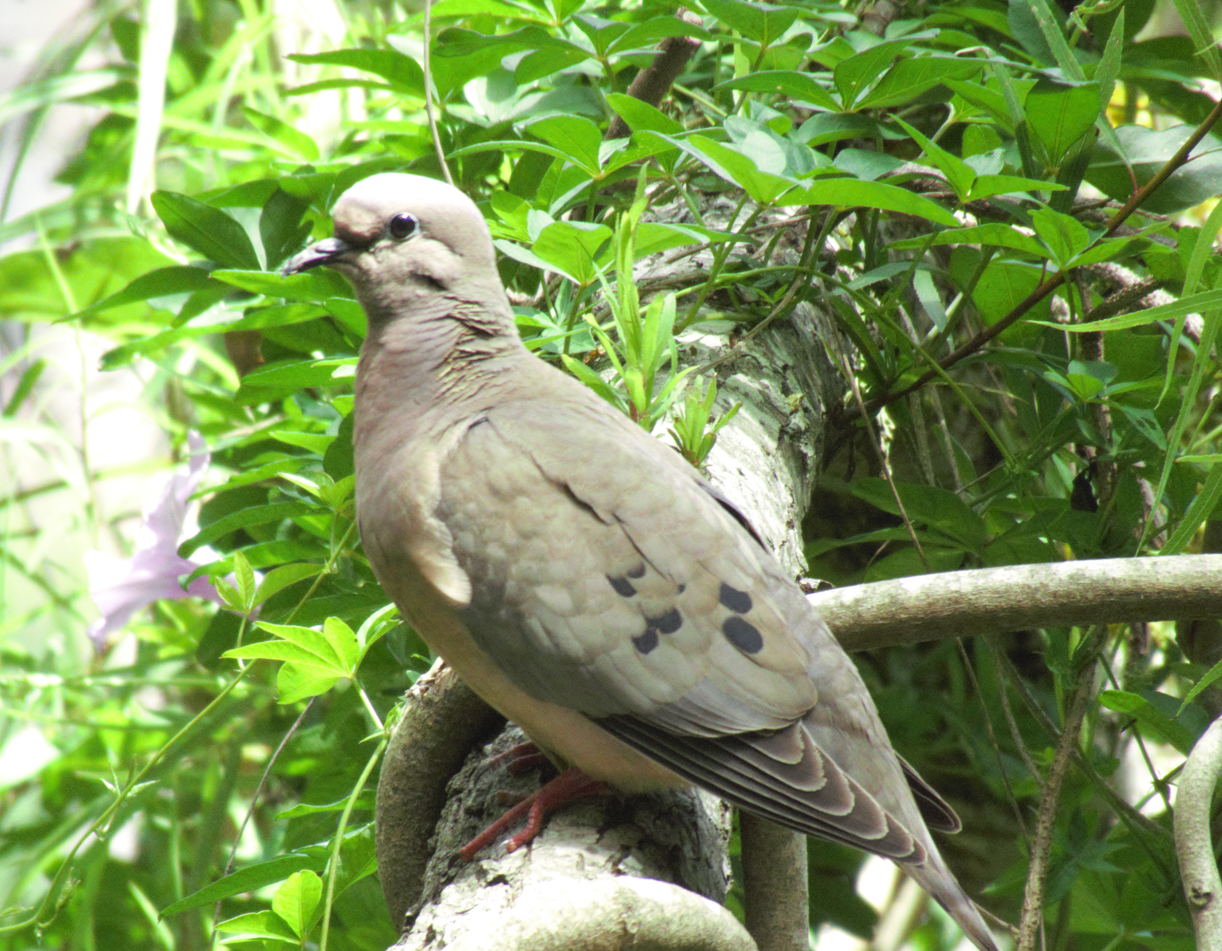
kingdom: Animalia
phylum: Chordata
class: Aves
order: Columbiformes
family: Columbidae
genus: Zenaida
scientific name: Zenaida auriculata
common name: Eared dove
